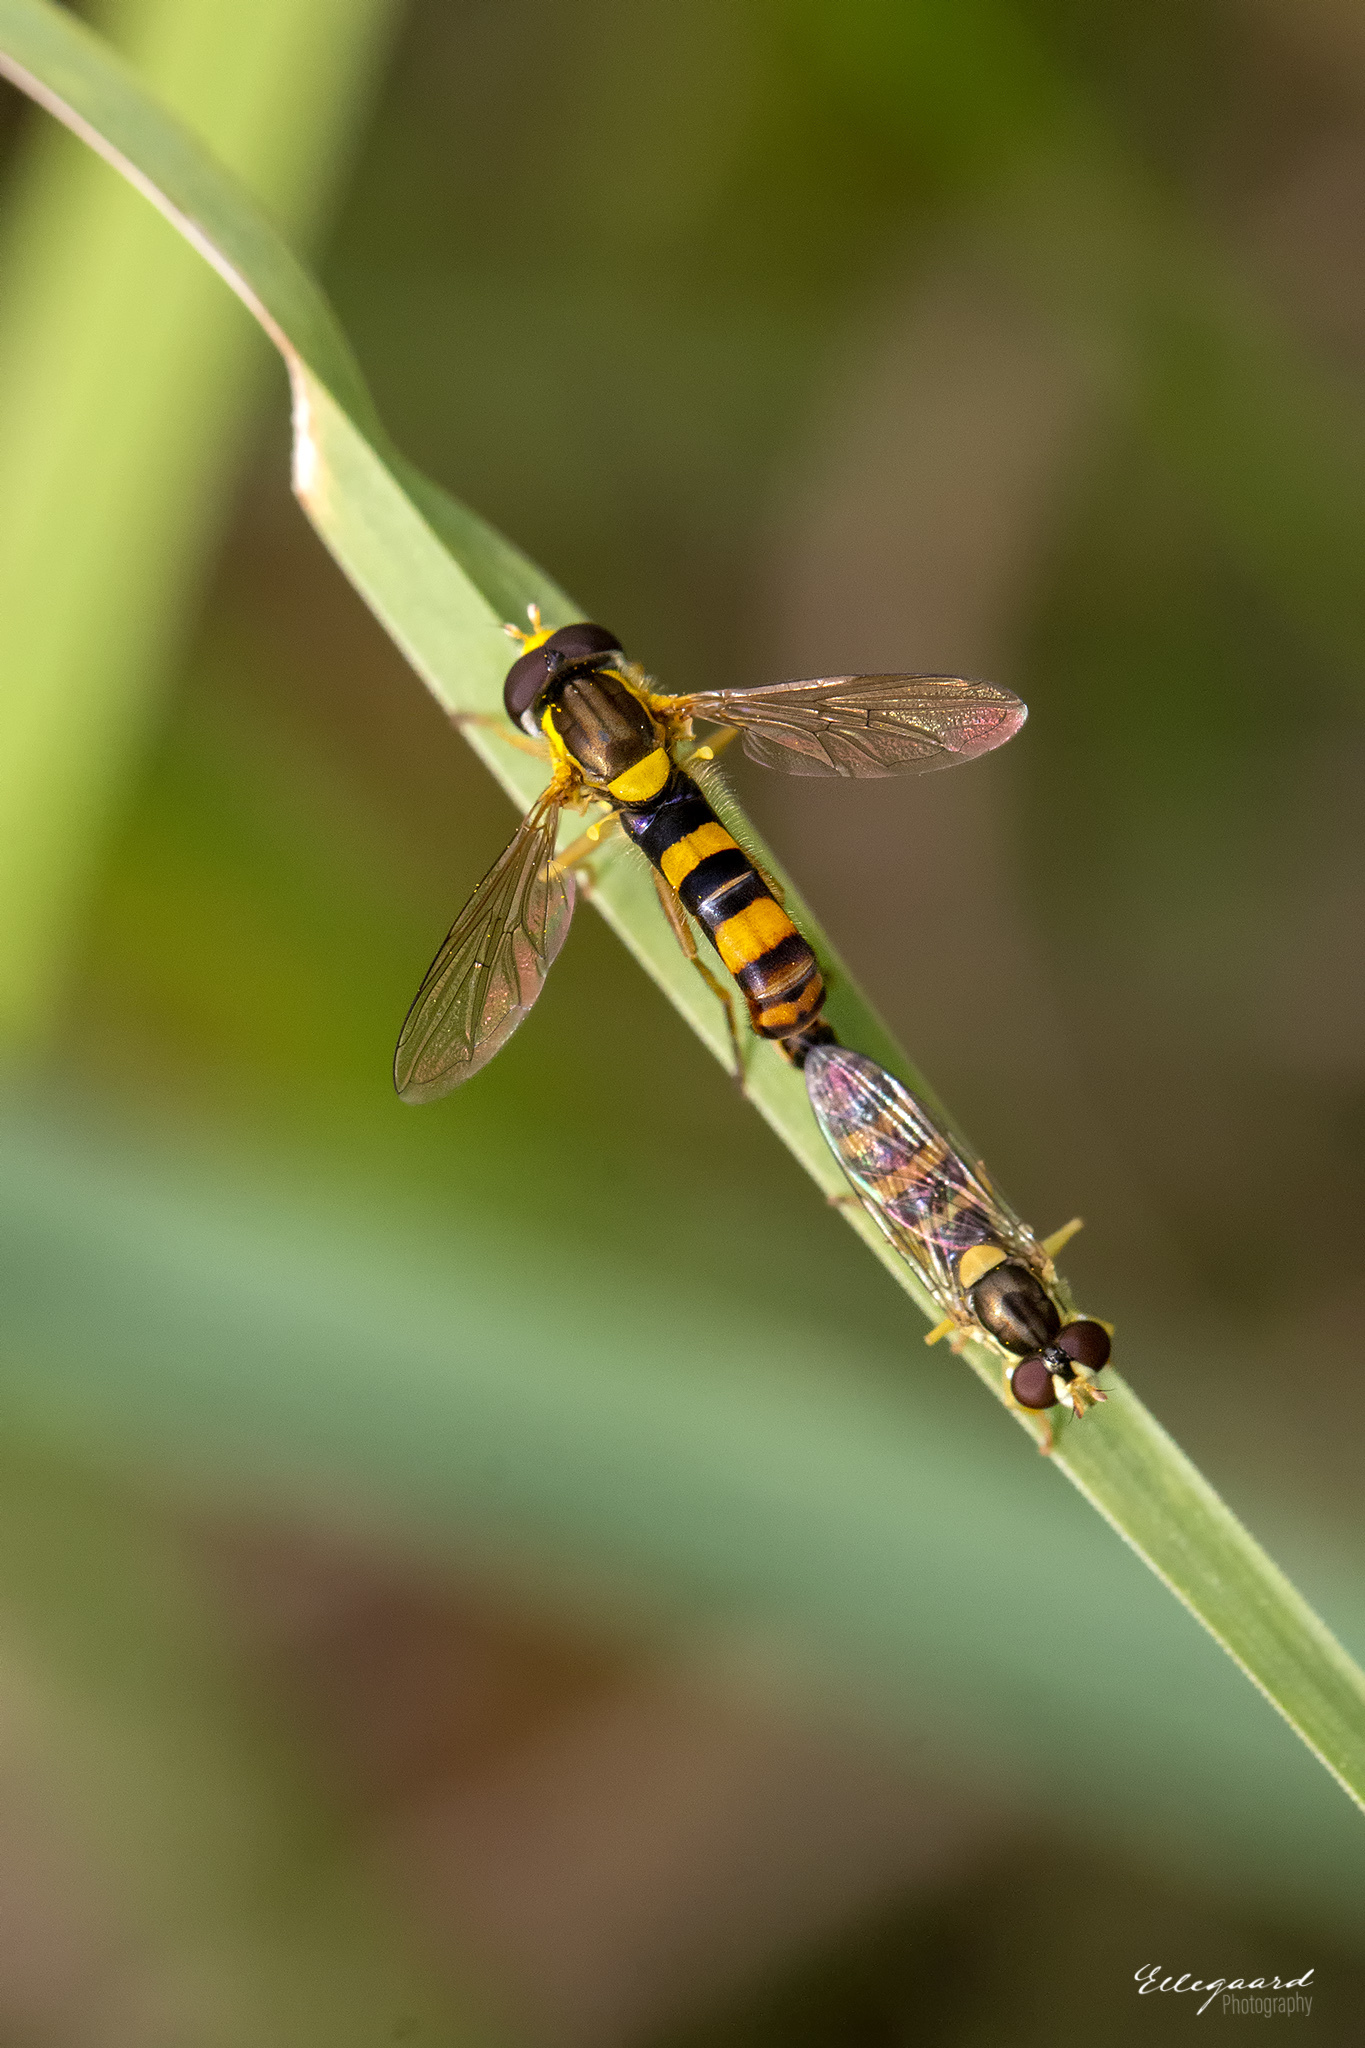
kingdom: Animalia
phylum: Arthropoda
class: Insecta
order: Diptera
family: Syrphidae
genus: Sphaerophoria
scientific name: Sphaerophoria scripta
